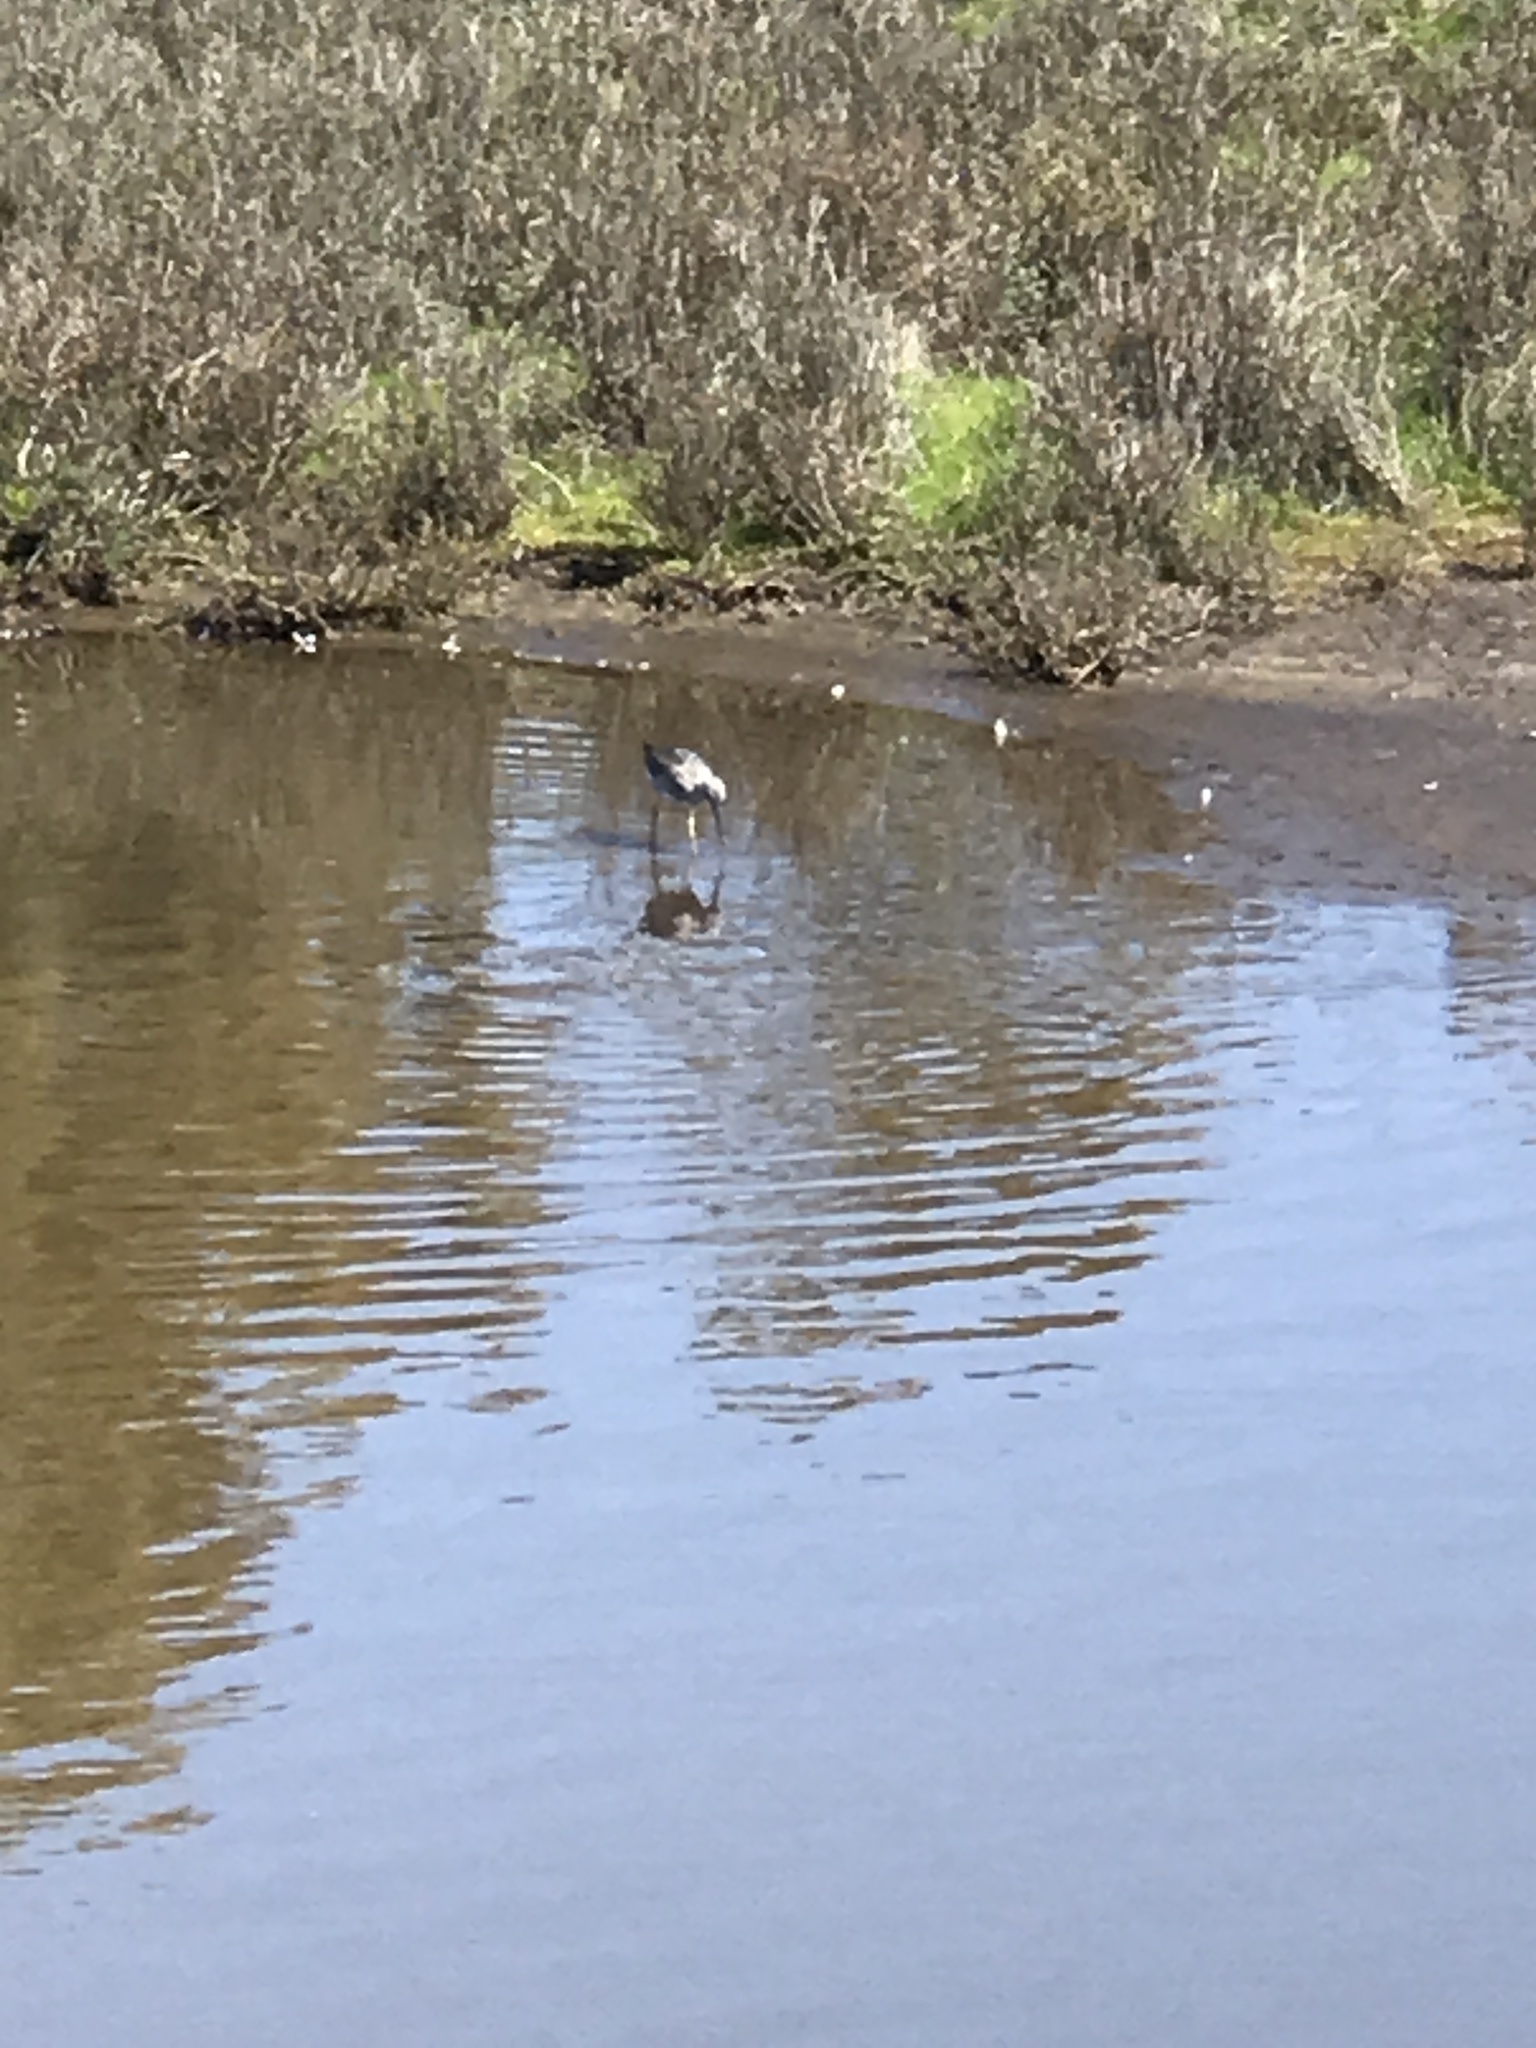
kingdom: Animalia
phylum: Chordata
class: Aves
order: Charadriiformes
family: Scolopacidae
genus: Tringa
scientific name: Tringa melanoleuca
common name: Greater yellowlegs
